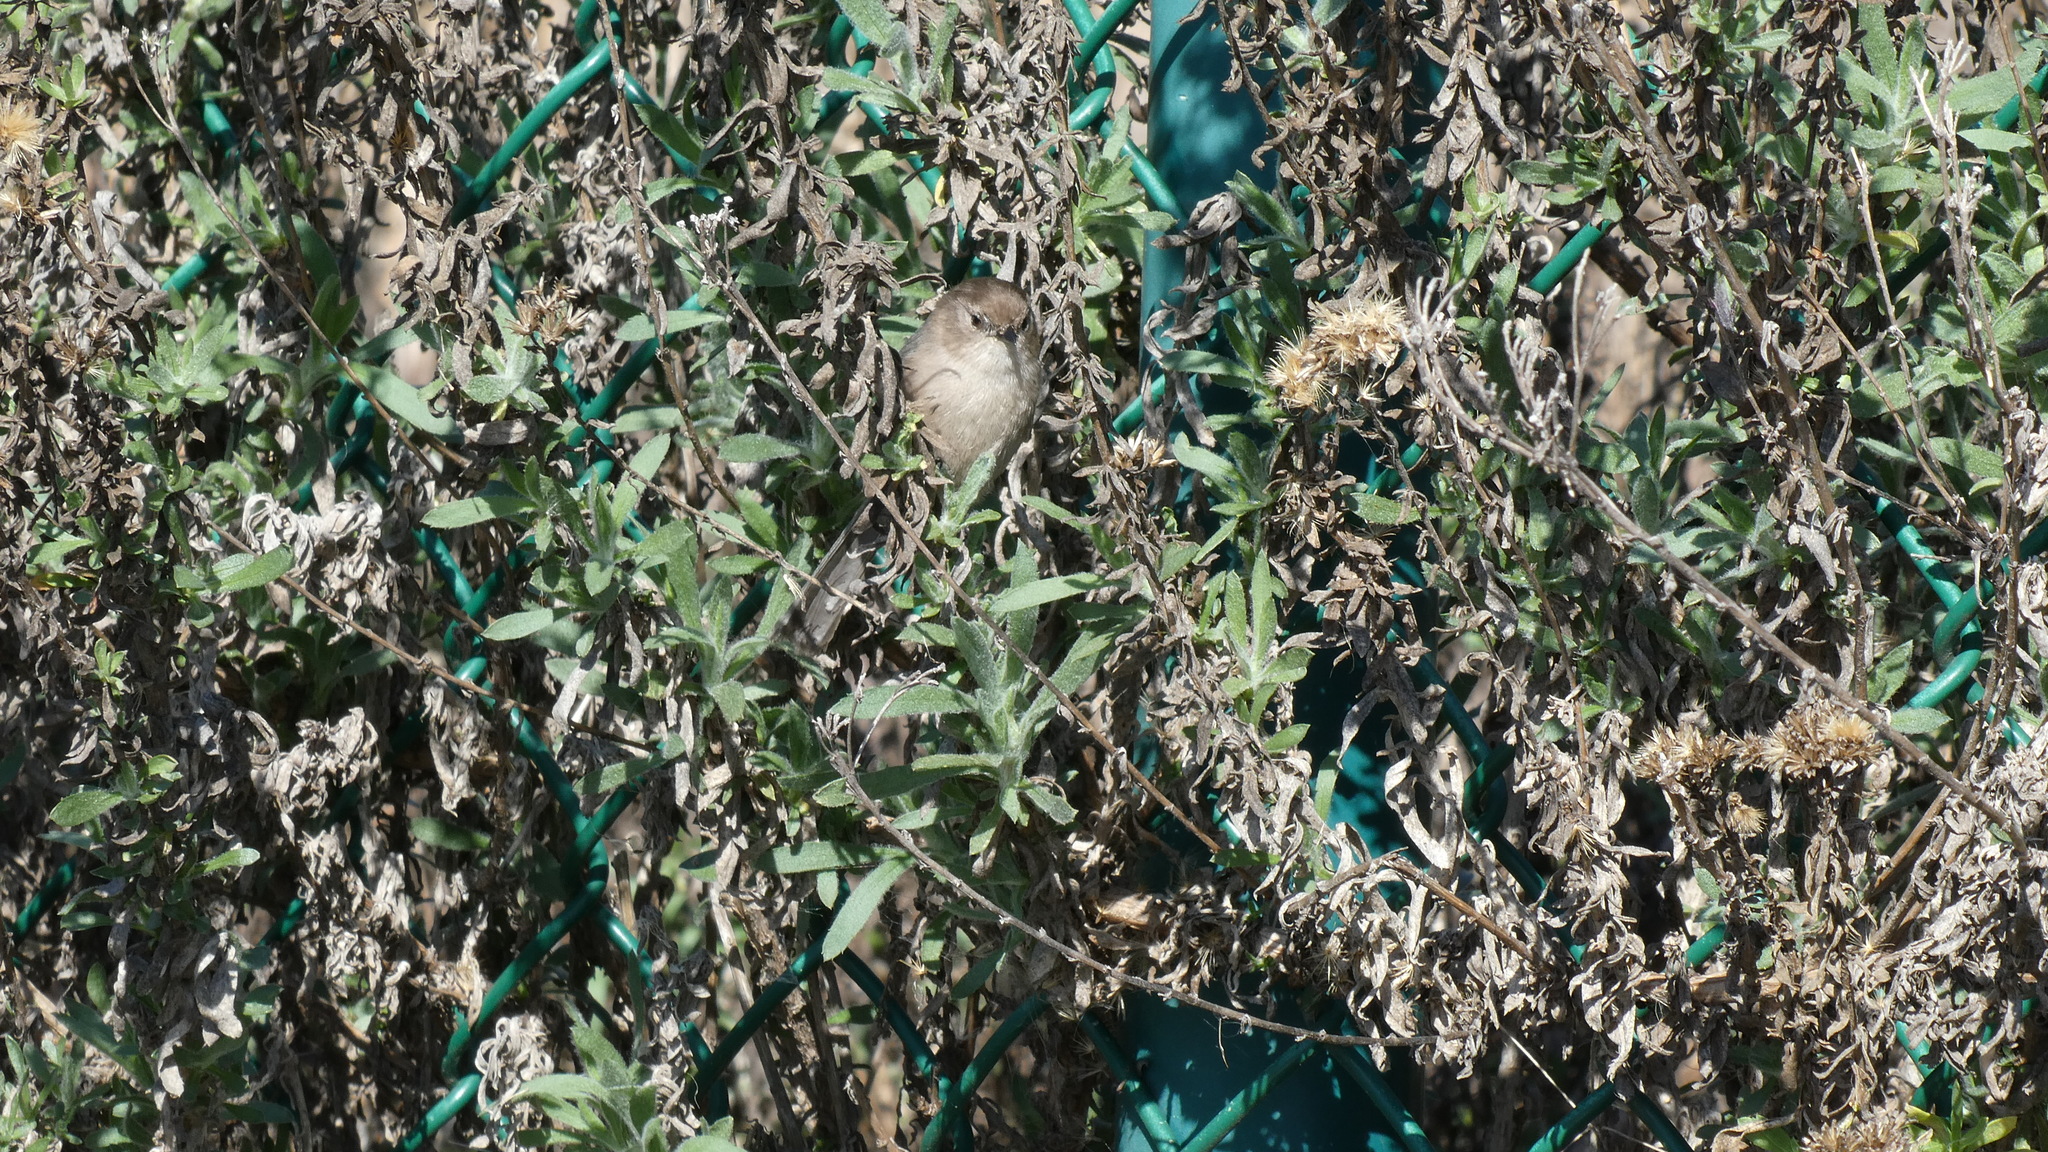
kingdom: Animalia
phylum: Chordata
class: Aves
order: Passeriformes
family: Aegithalidae
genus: Psaltriparus
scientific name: Psaltriparus minimus
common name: American bushtit
